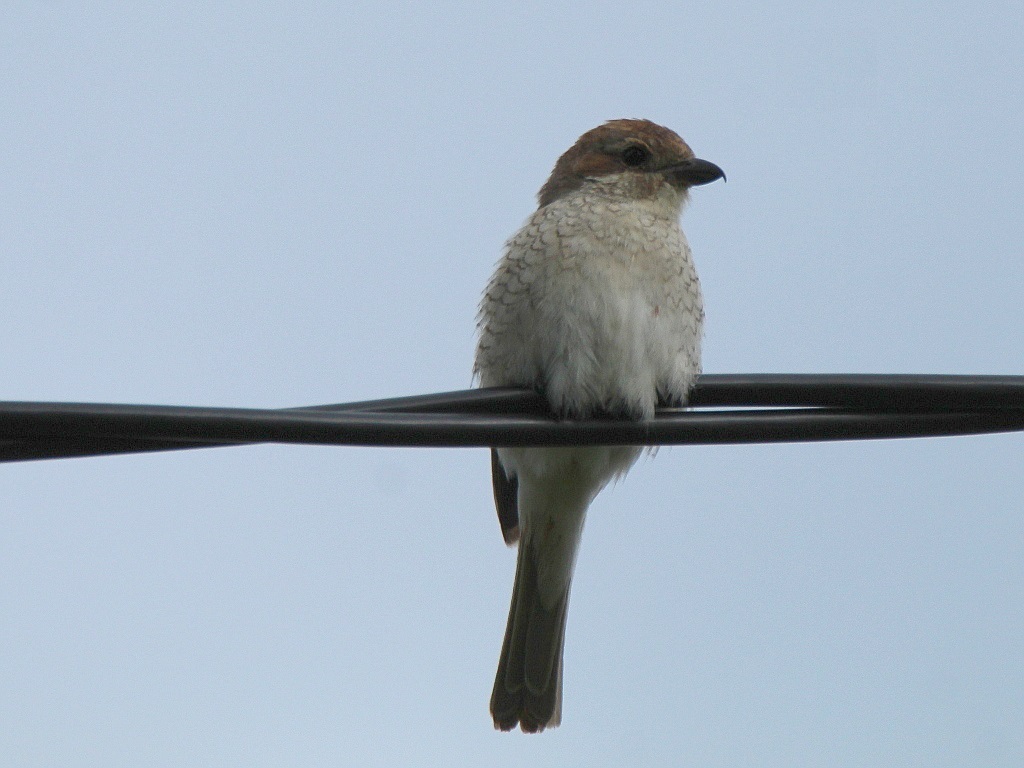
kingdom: Animalia
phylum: Chordata
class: Aves
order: Passeriformes
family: Laniidae
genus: Lanius
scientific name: Lanius collurio
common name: Red-backed shrike
